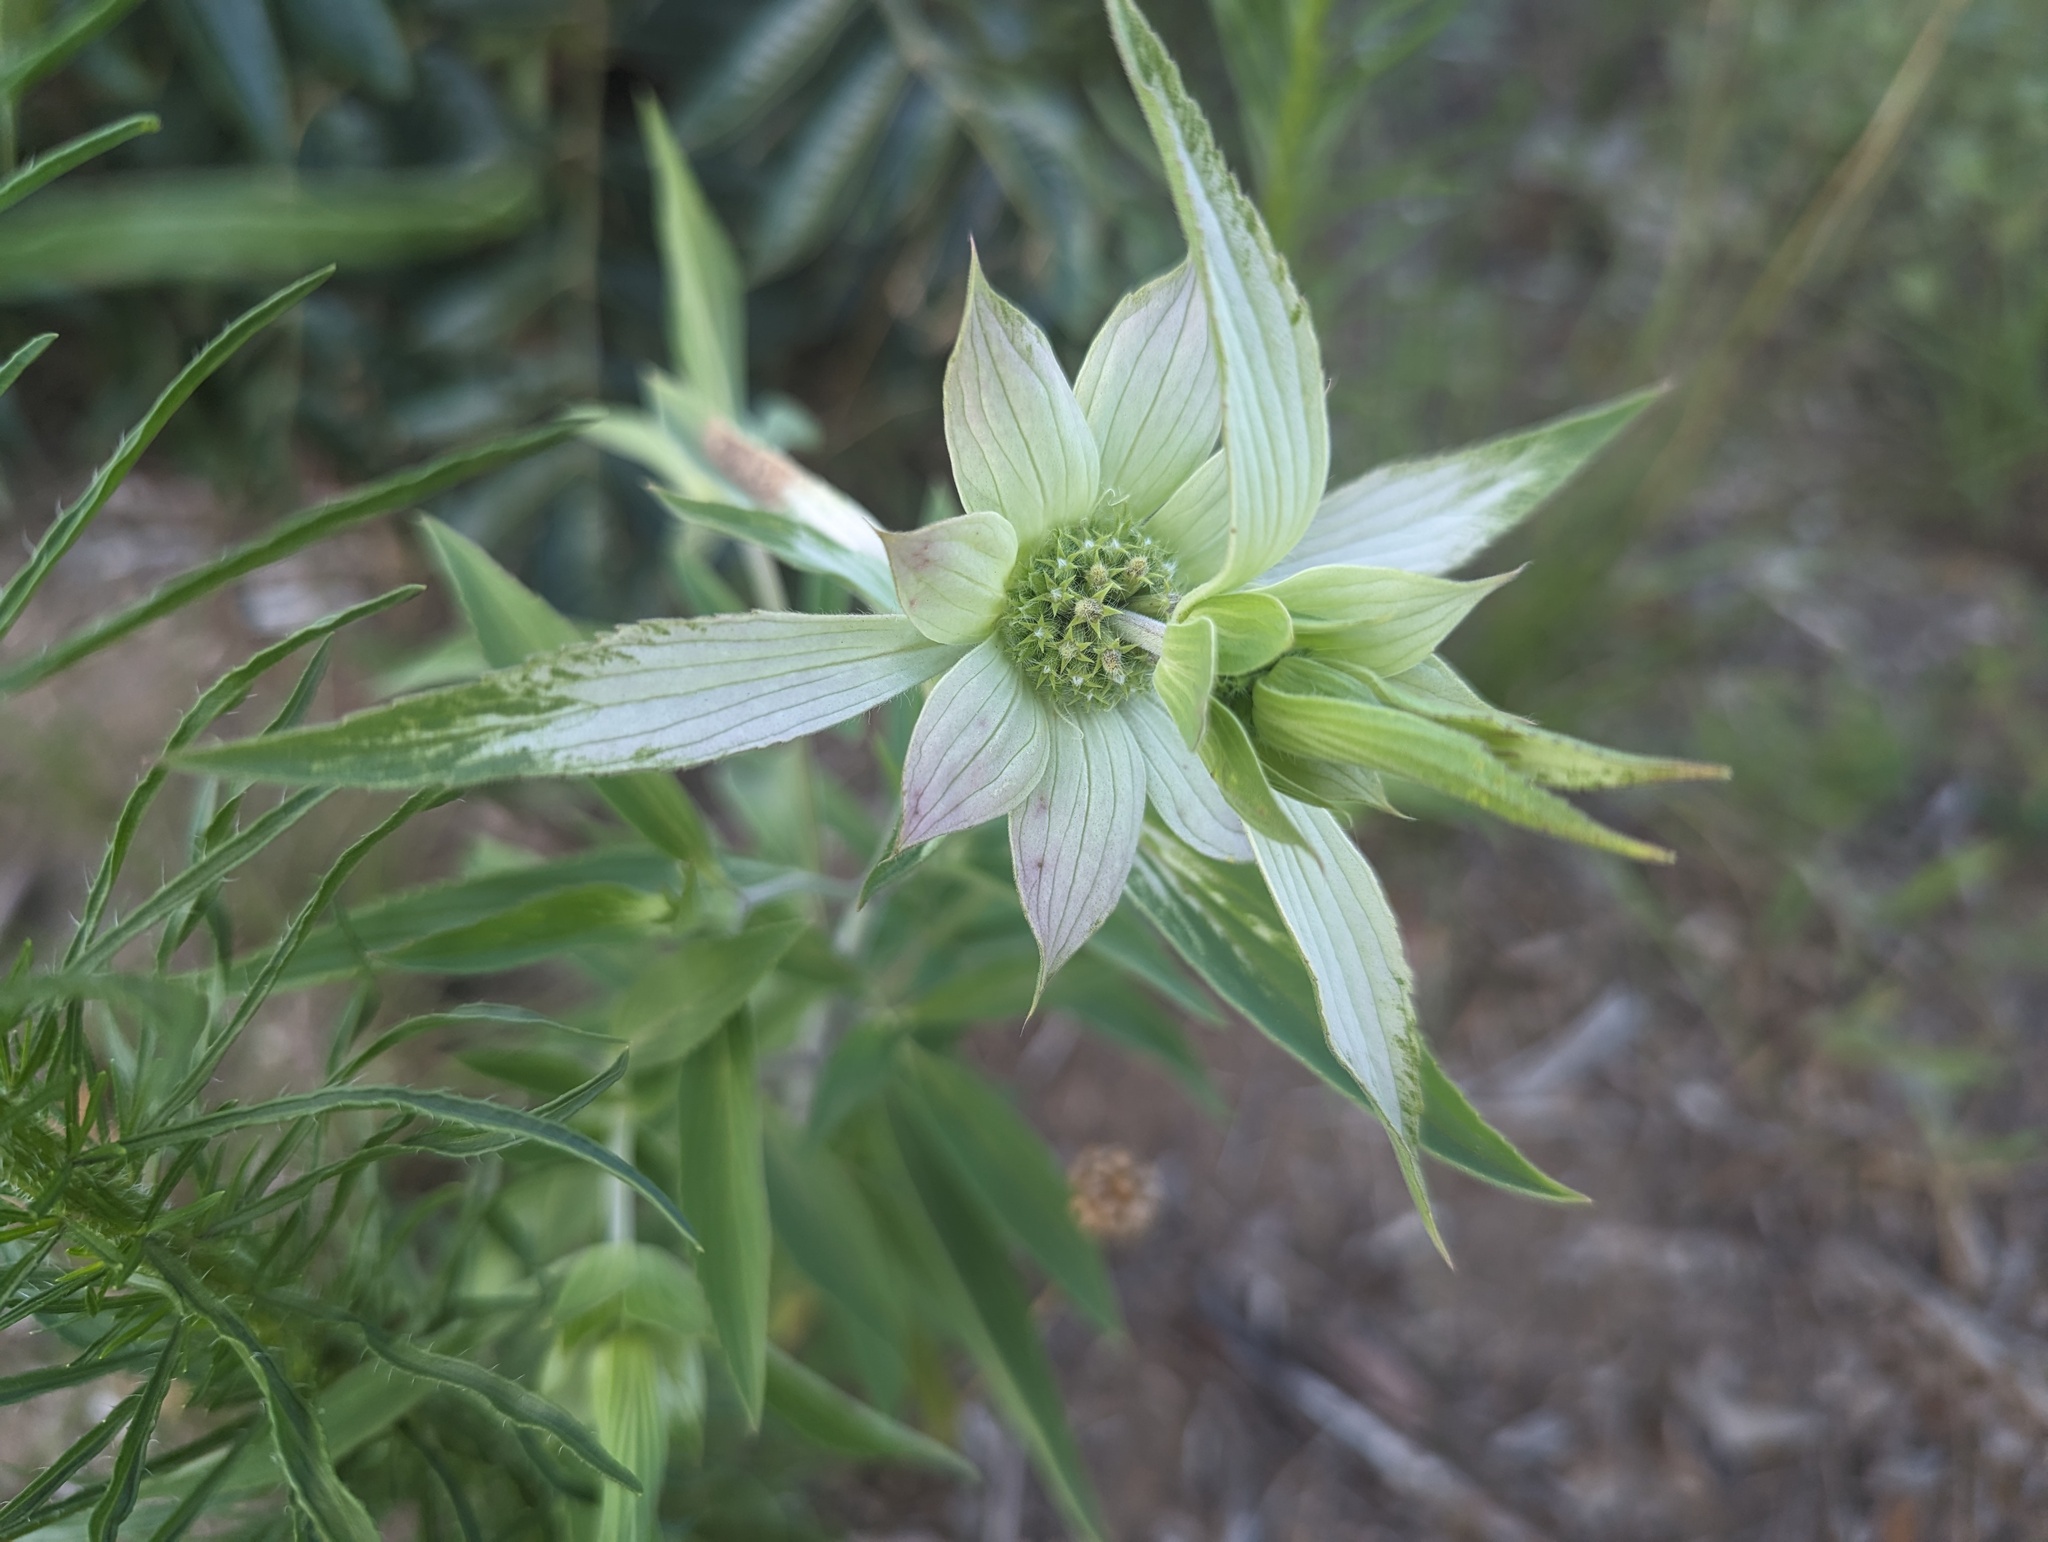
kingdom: Plantae
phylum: Tracheophyta
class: Magnoliopsida
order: Lamiales
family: Lamiaceae
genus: Monarda
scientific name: Monarda punctata
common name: Dotted monarda
